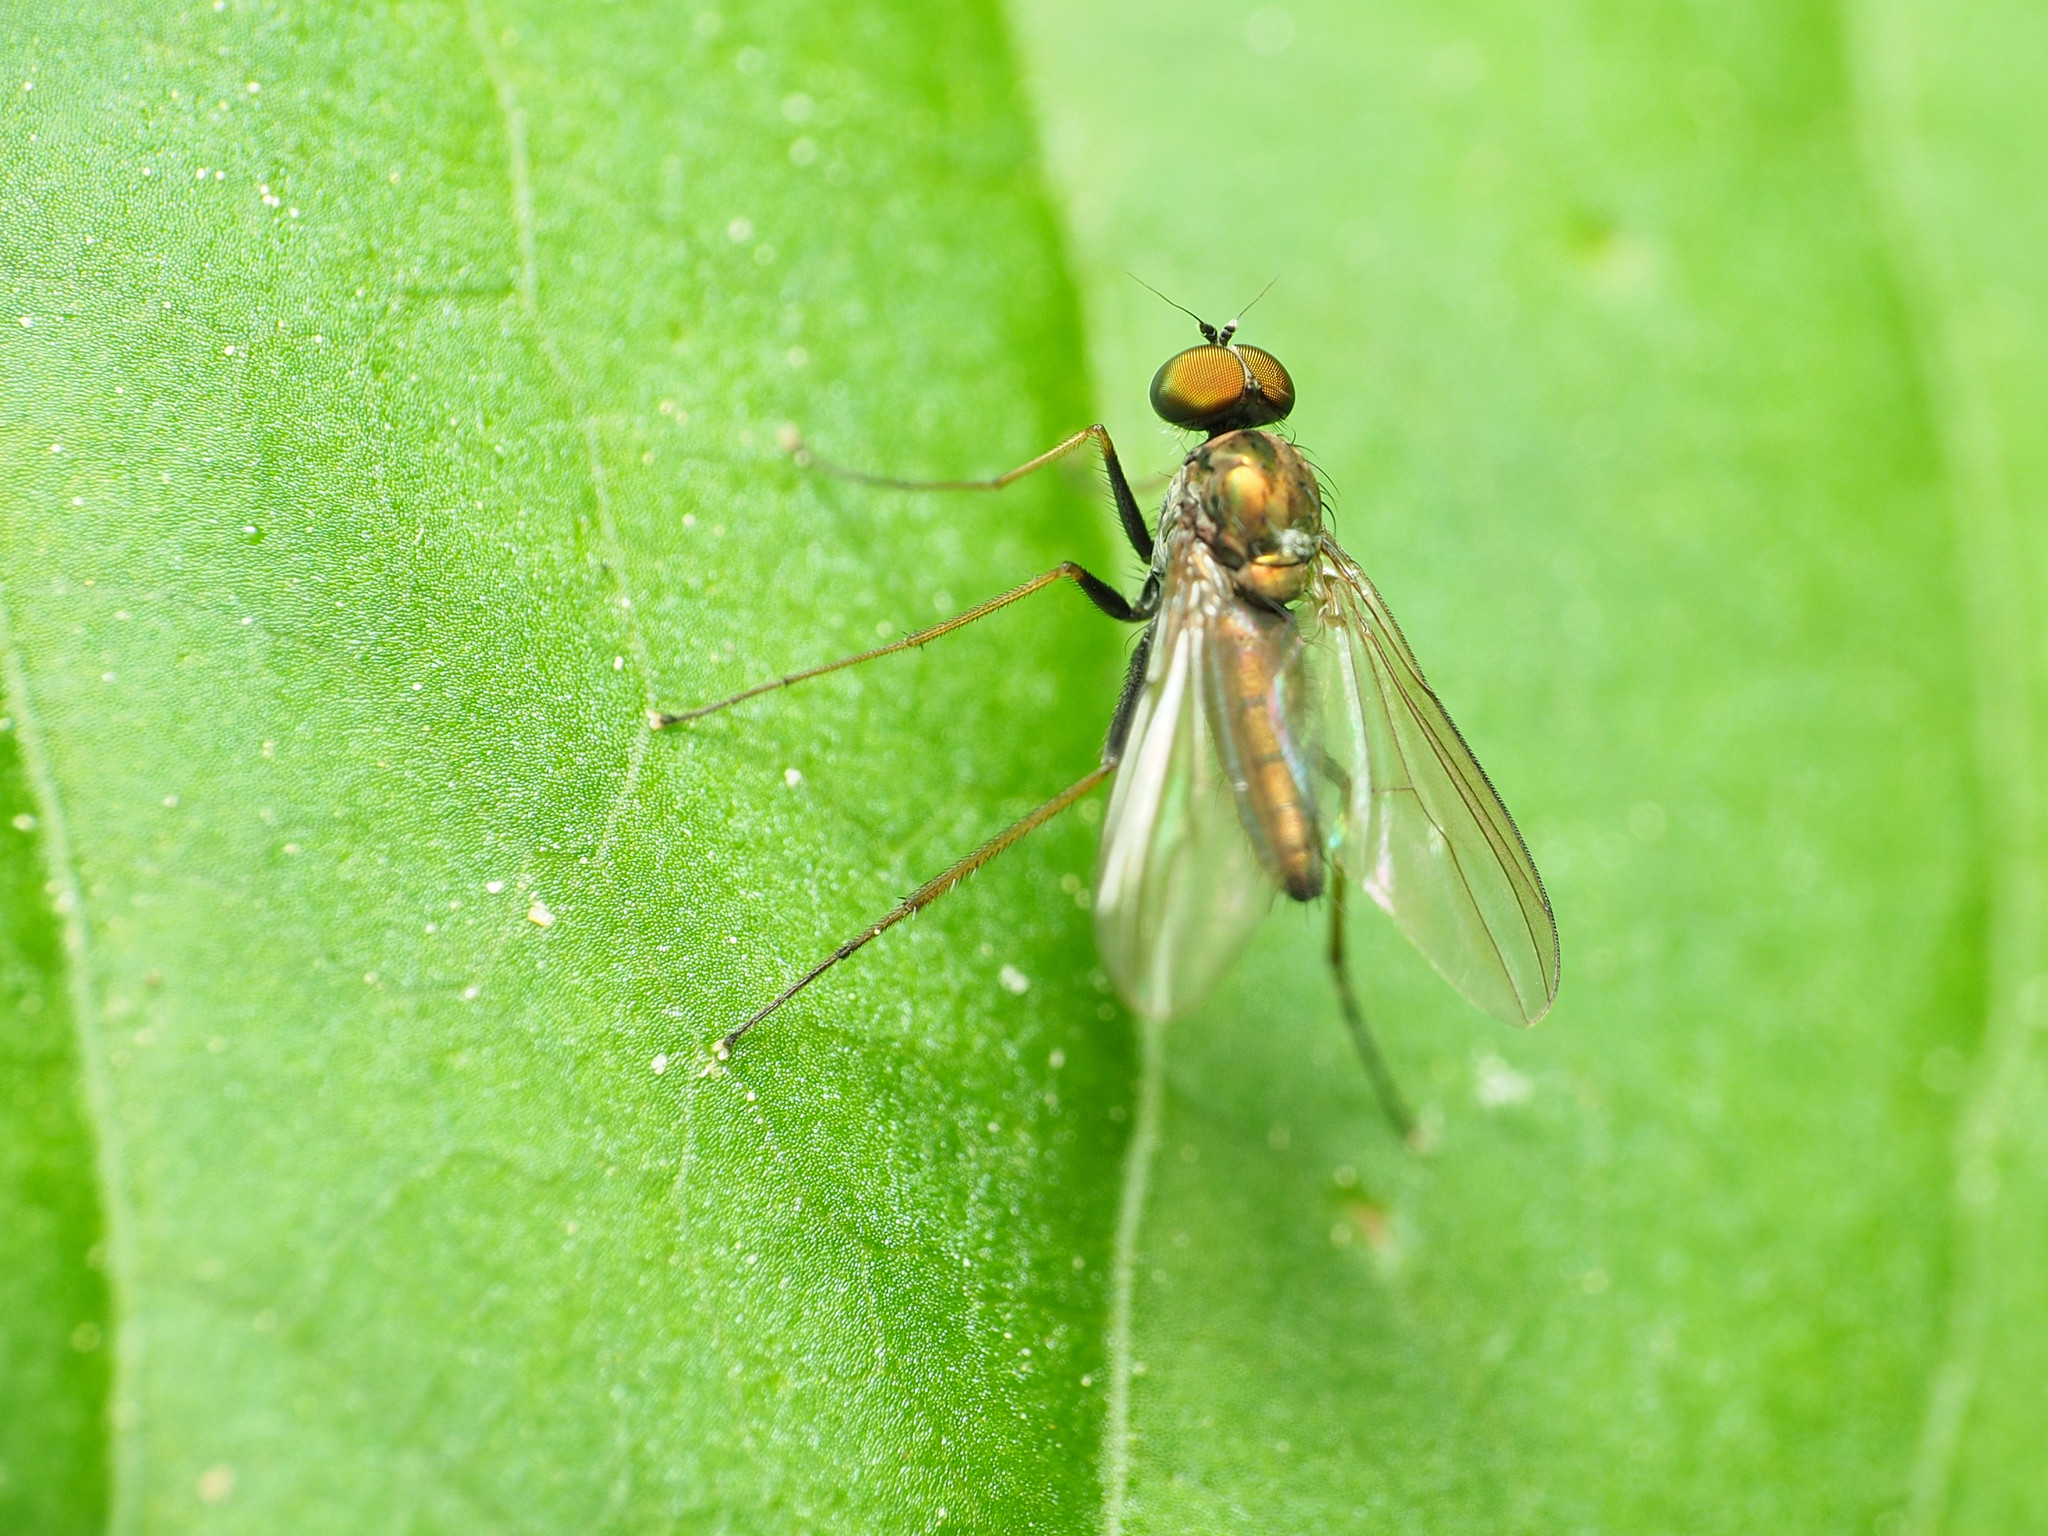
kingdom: Animalia
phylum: Arthropoda
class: Insecta
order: Diptera
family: Dolichopodidae
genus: Chrysotus
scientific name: Chrysotus spectabilis
